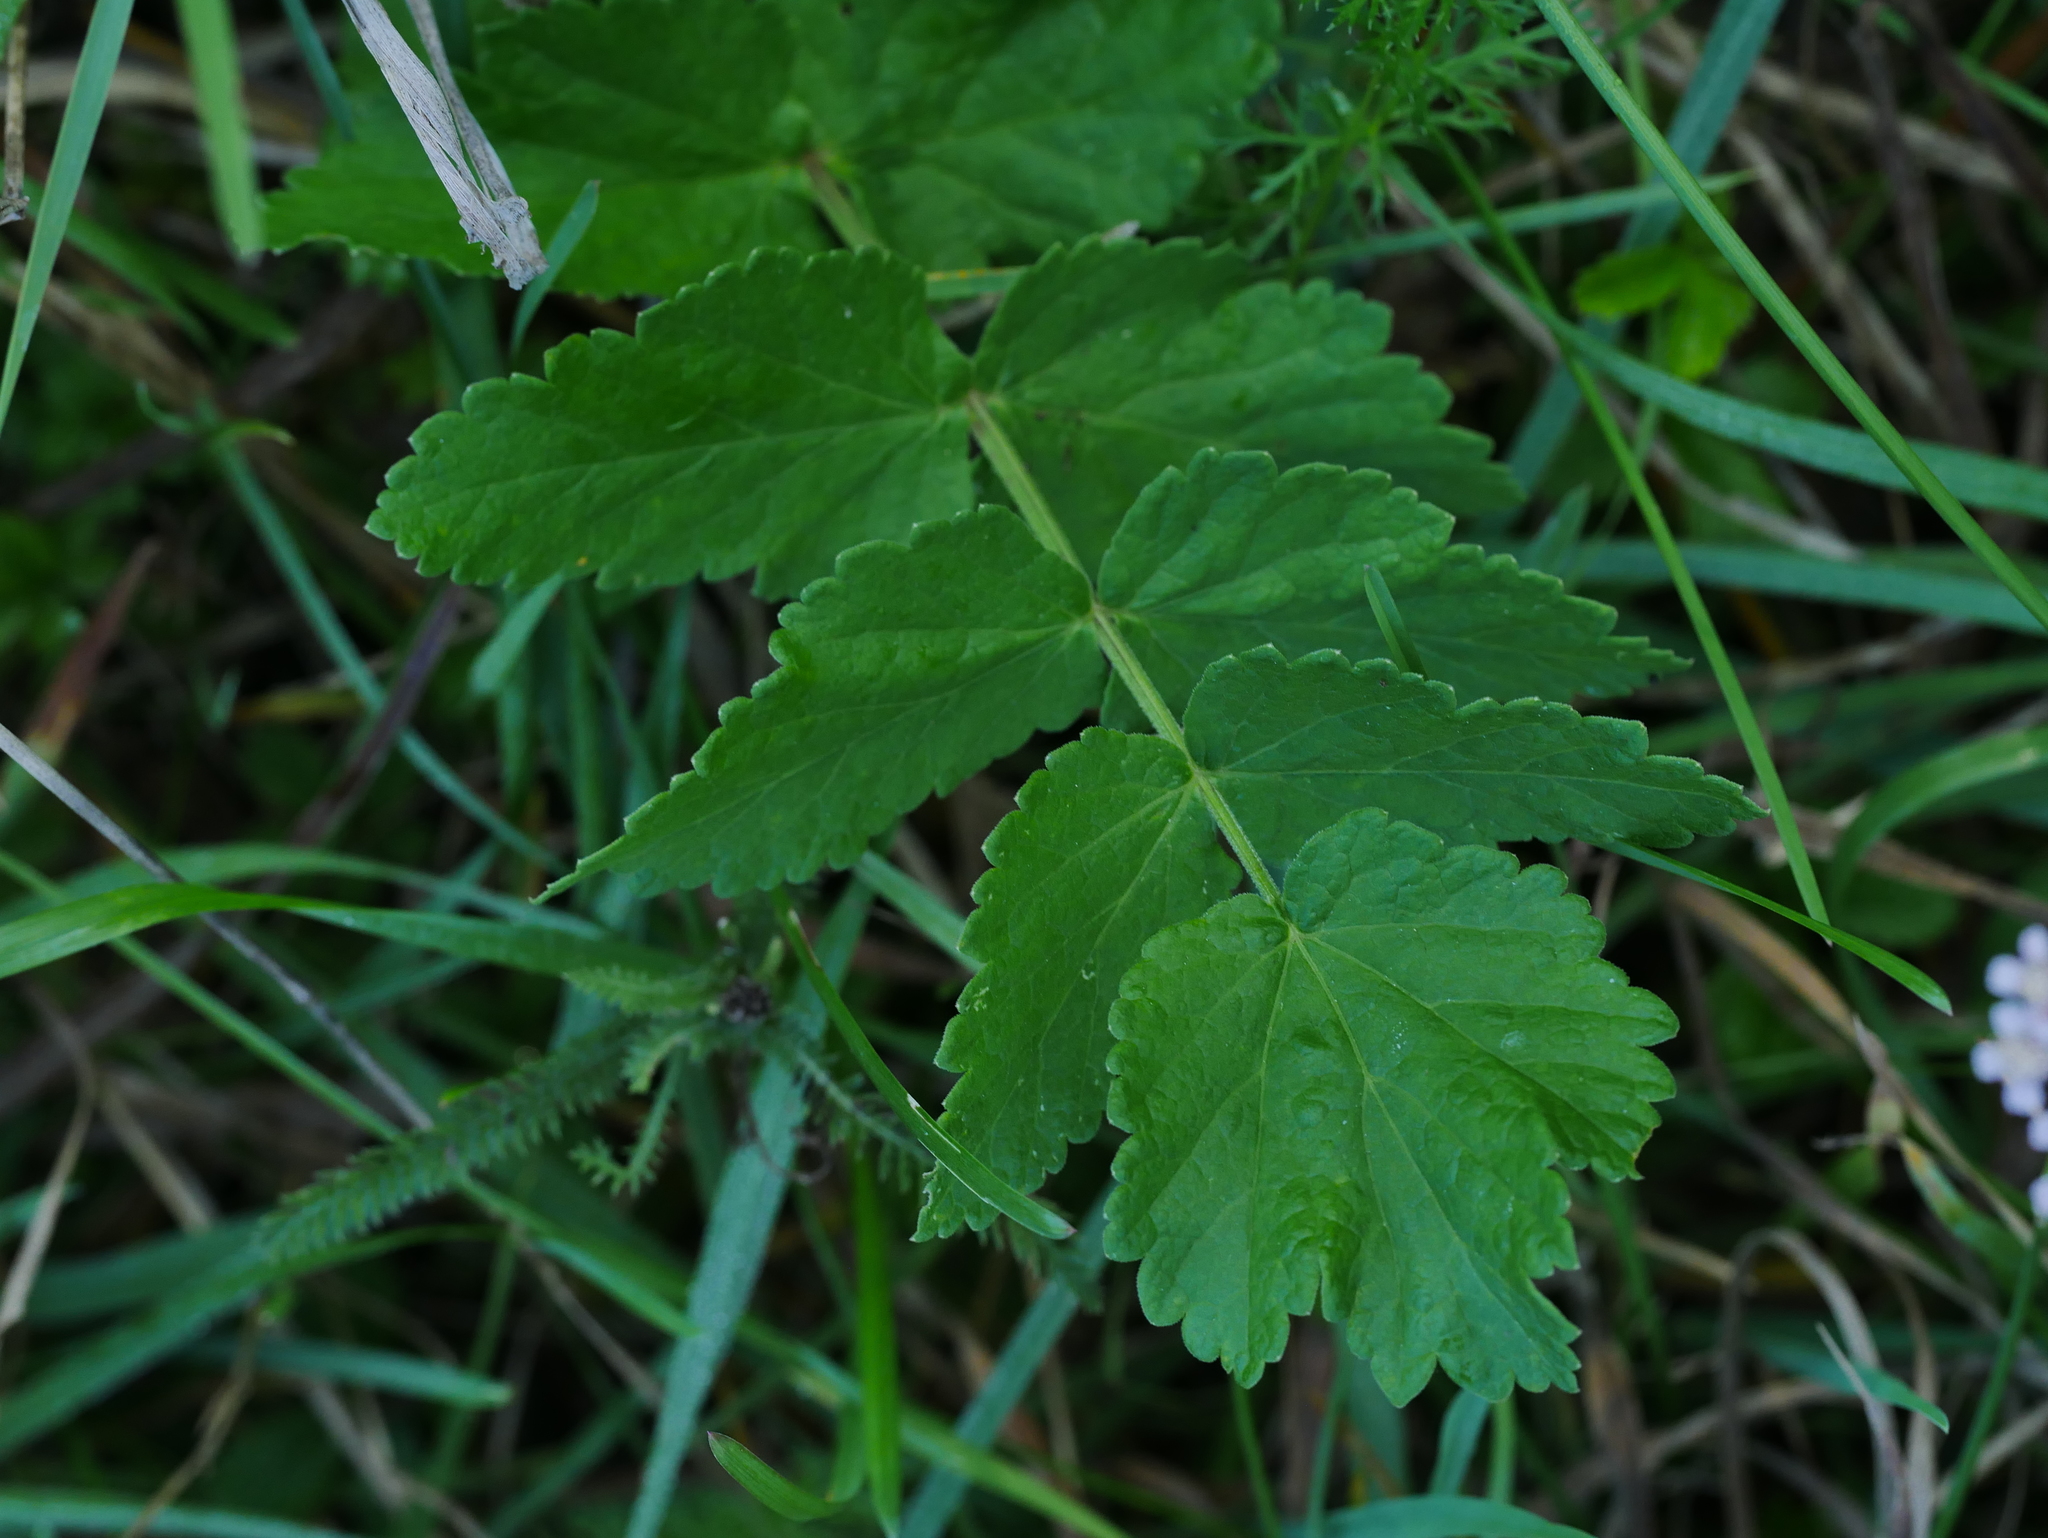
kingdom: Plantae
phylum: Tracheophyta
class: Magnoliopsida
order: Apiales
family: Apiaceae
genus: Pastinaca
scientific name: Pastinaca sativa
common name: Wild parsnip
